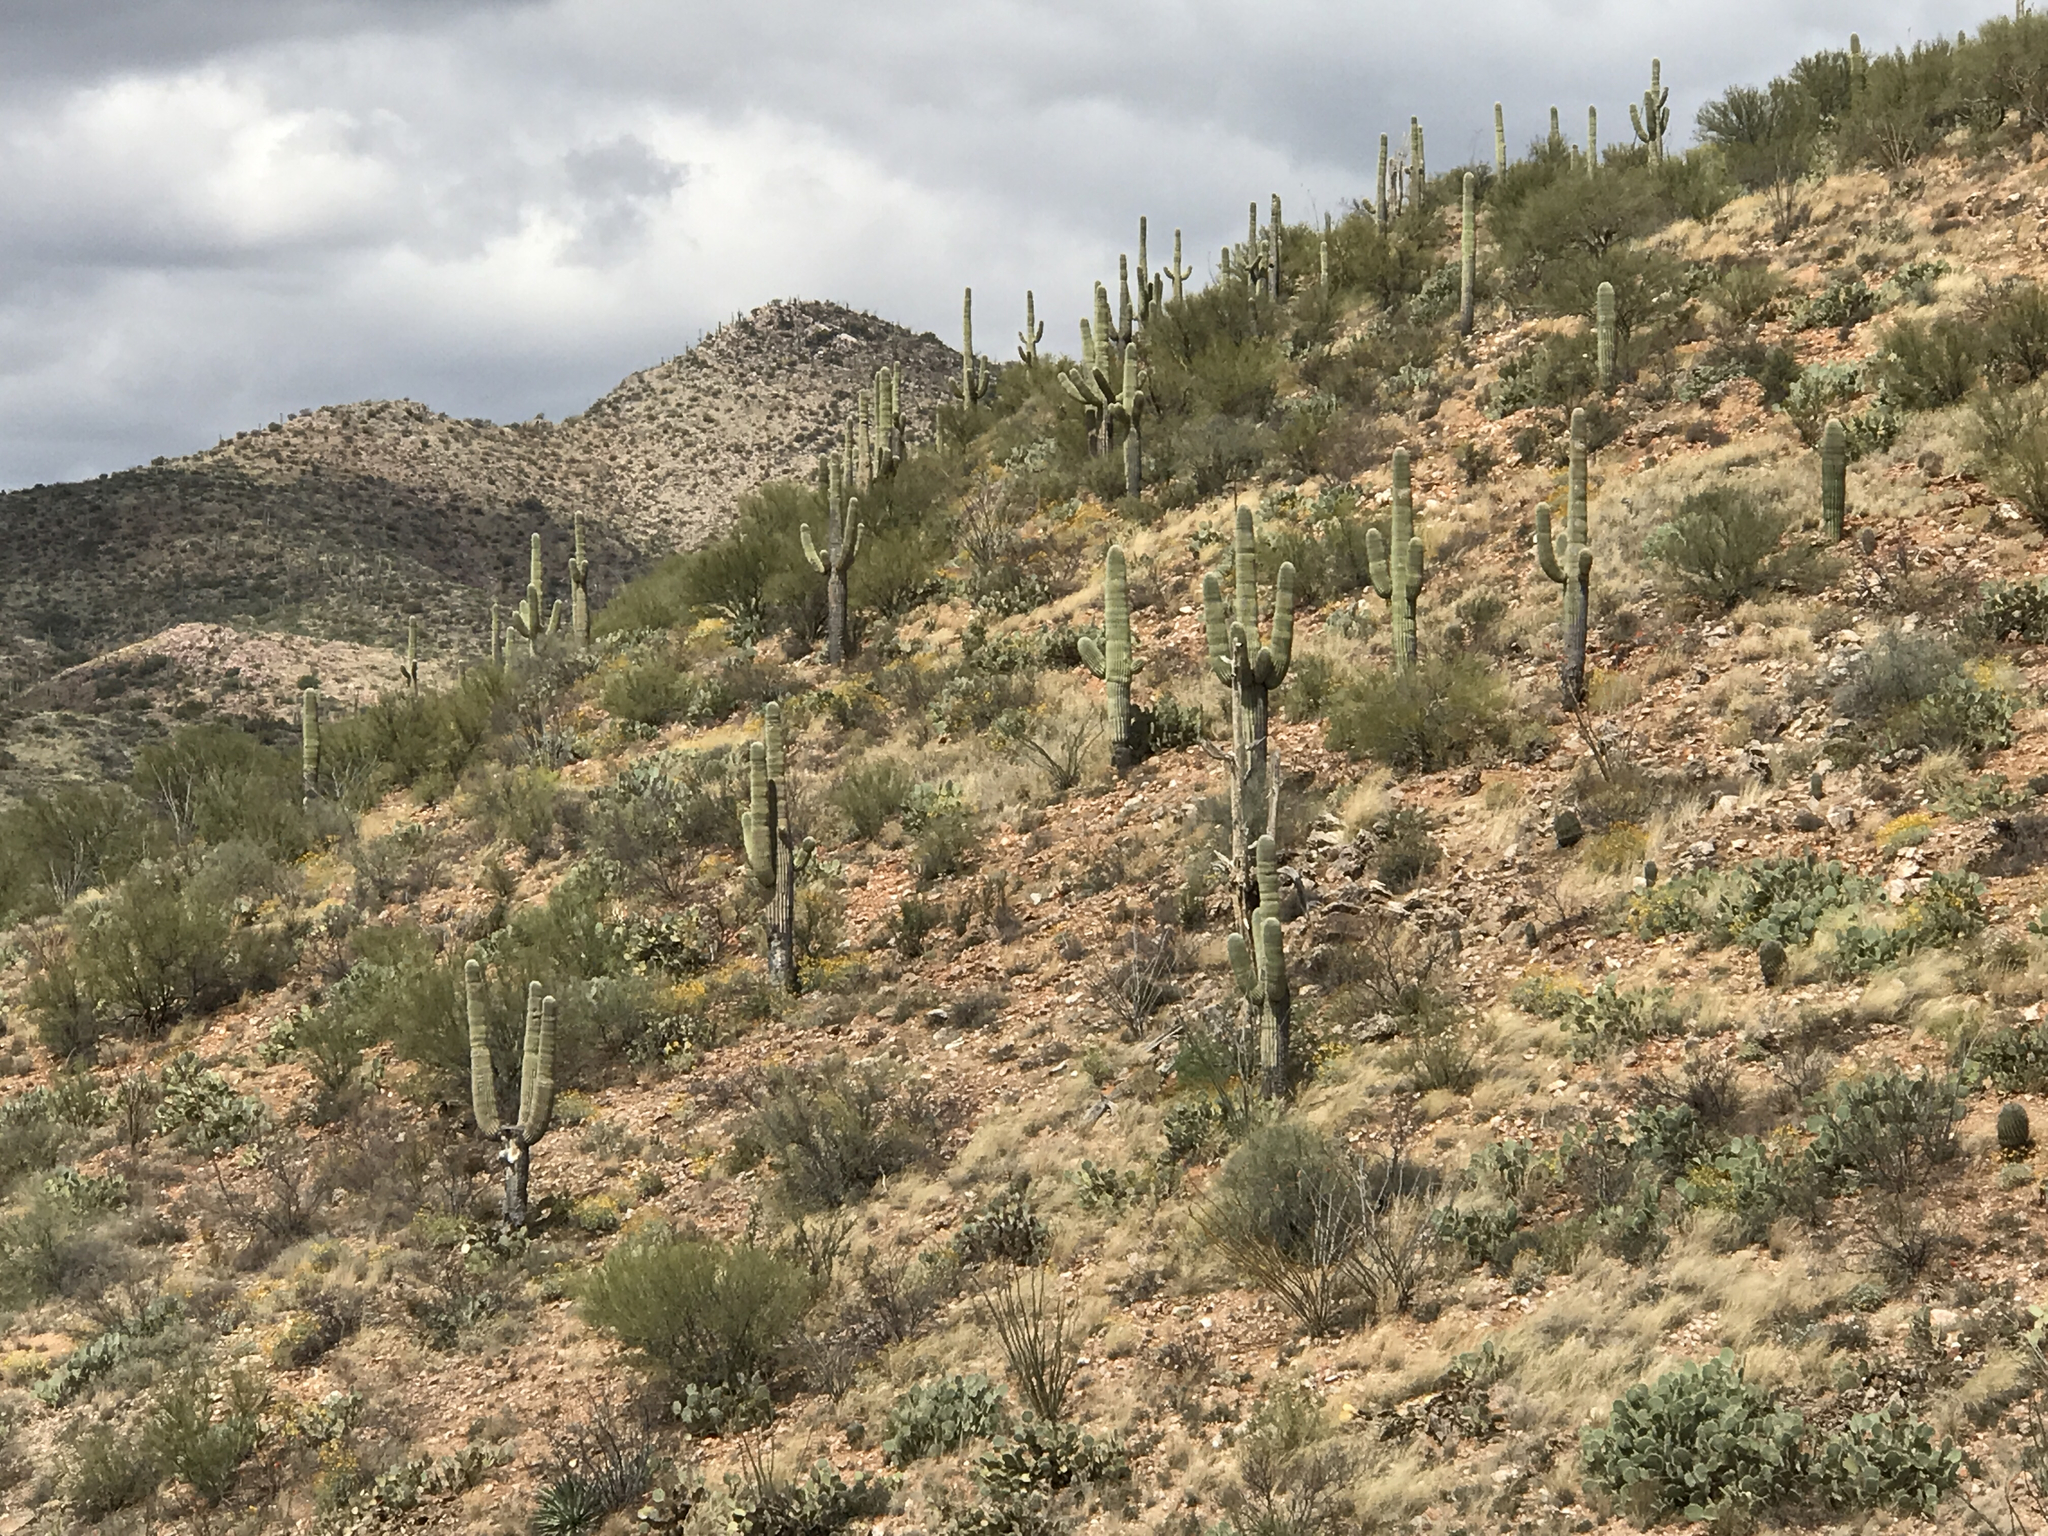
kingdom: Plantae
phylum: Tracheophyta
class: Magnoliopsida
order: Caryophyllales
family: Cactaceae
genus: Carnegiea
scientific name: Carnegiea gigantea
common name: Saguaro
